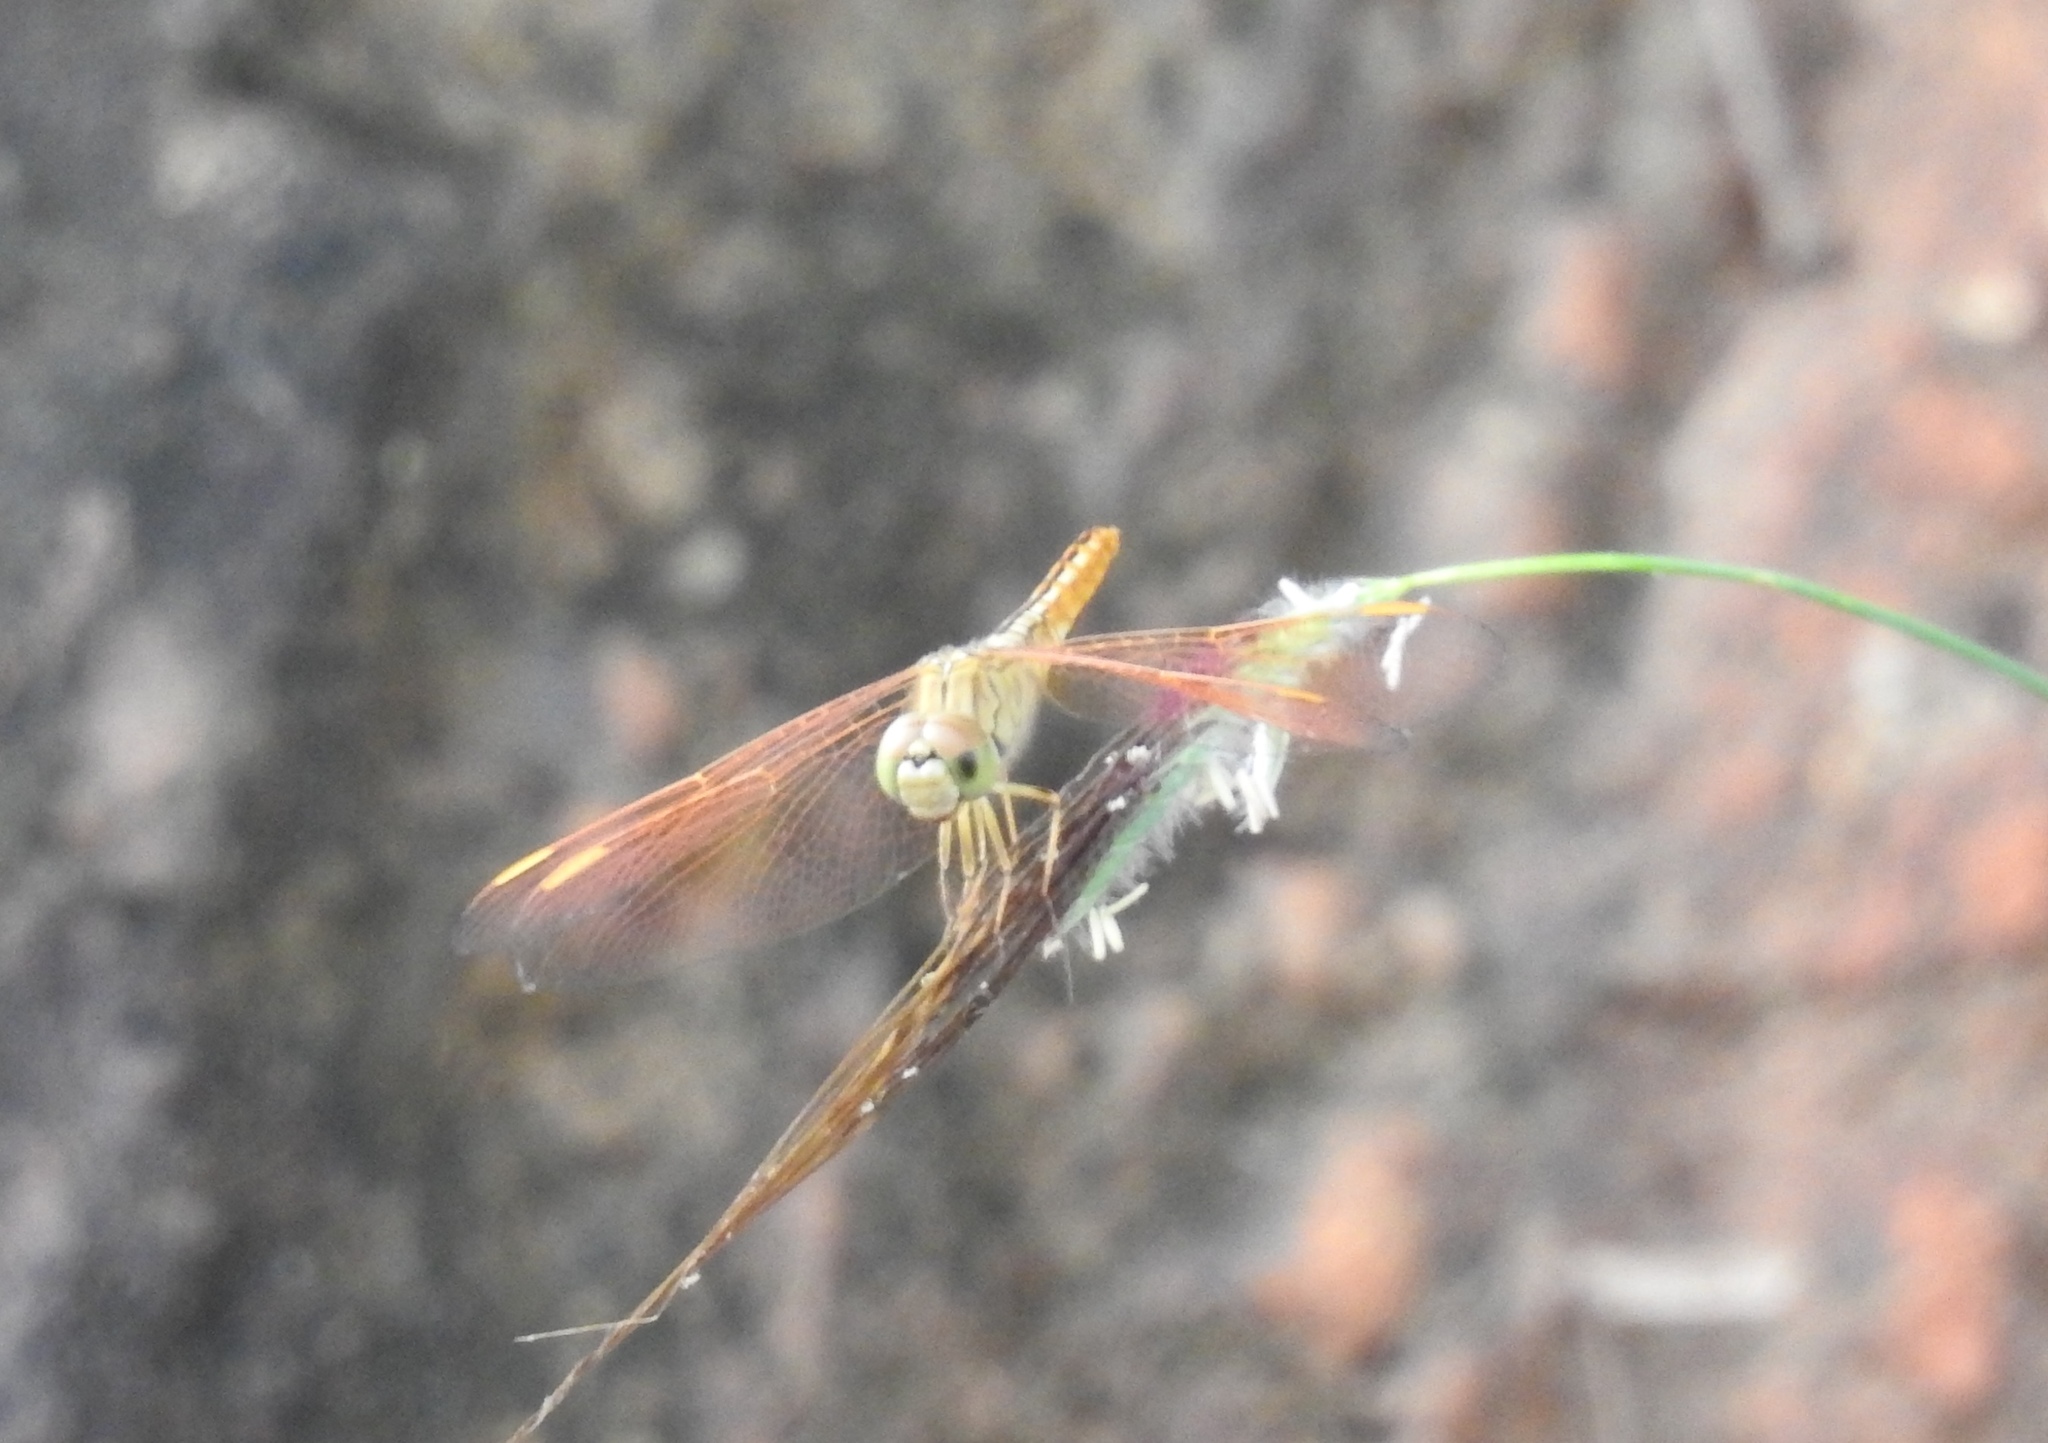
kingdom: Animalia
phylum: Arthropoda
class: Insecta
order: Odonata
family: Libellulidae
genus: Brachythemis
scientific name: Brachythemis contaminata
